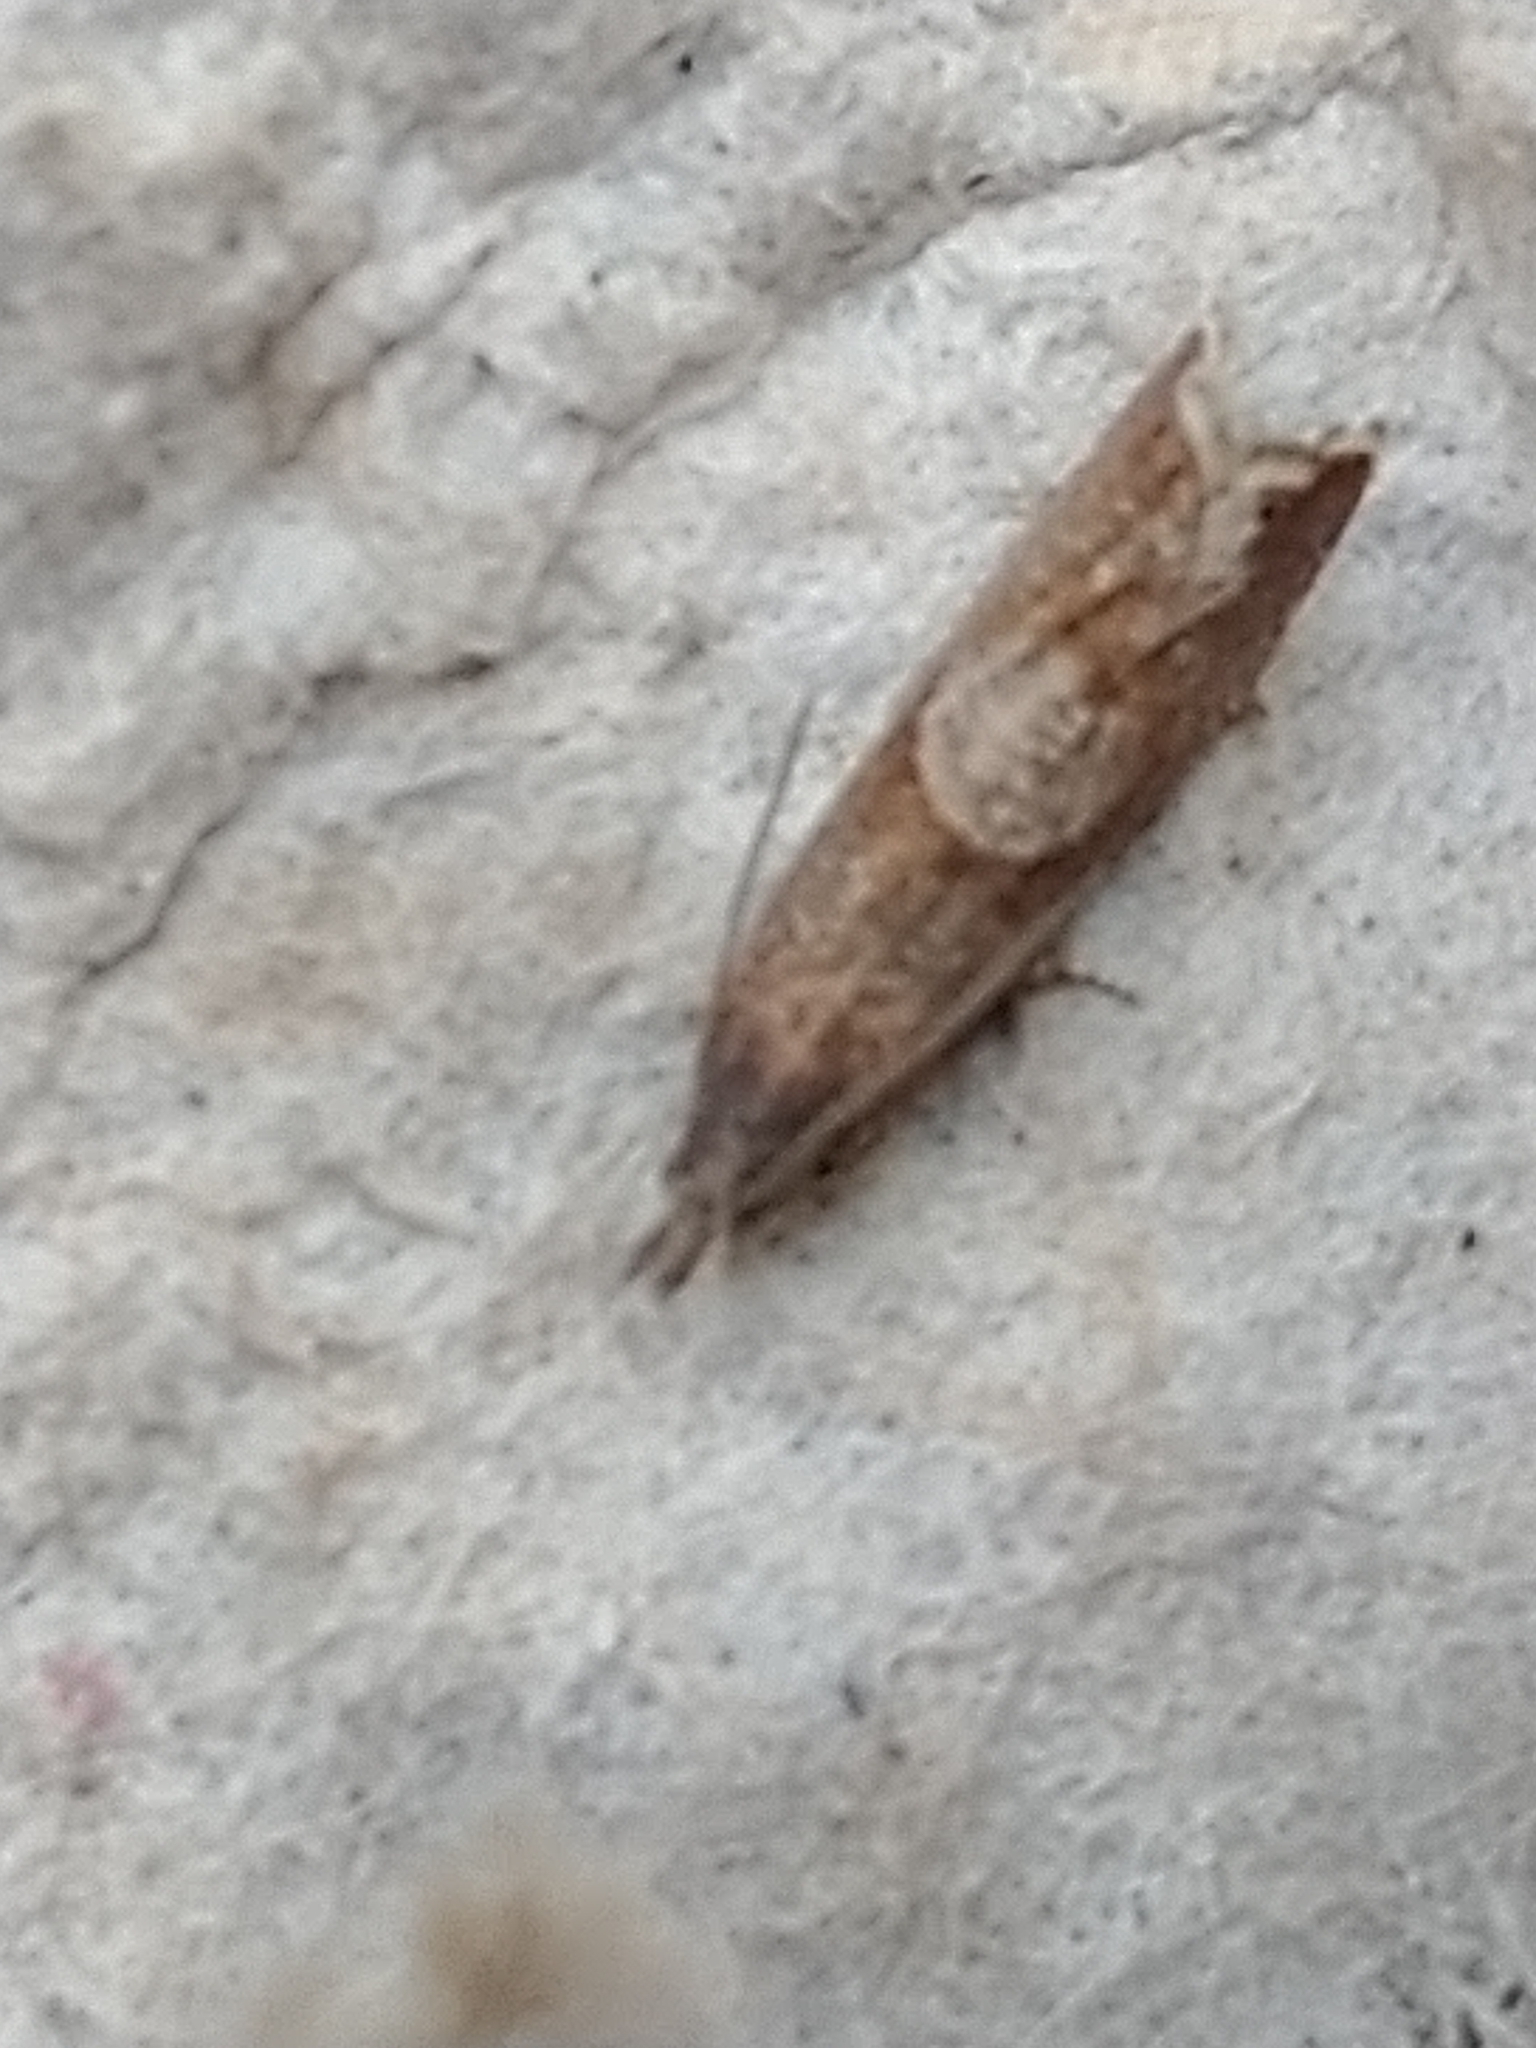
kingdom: Animalia
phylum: Arthropoda
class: Insecta
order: Lepidoptera
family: Tortricidae
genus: Dichrorampha
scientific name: Dichrorampha acuminatana
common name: Sharp-winged drill
